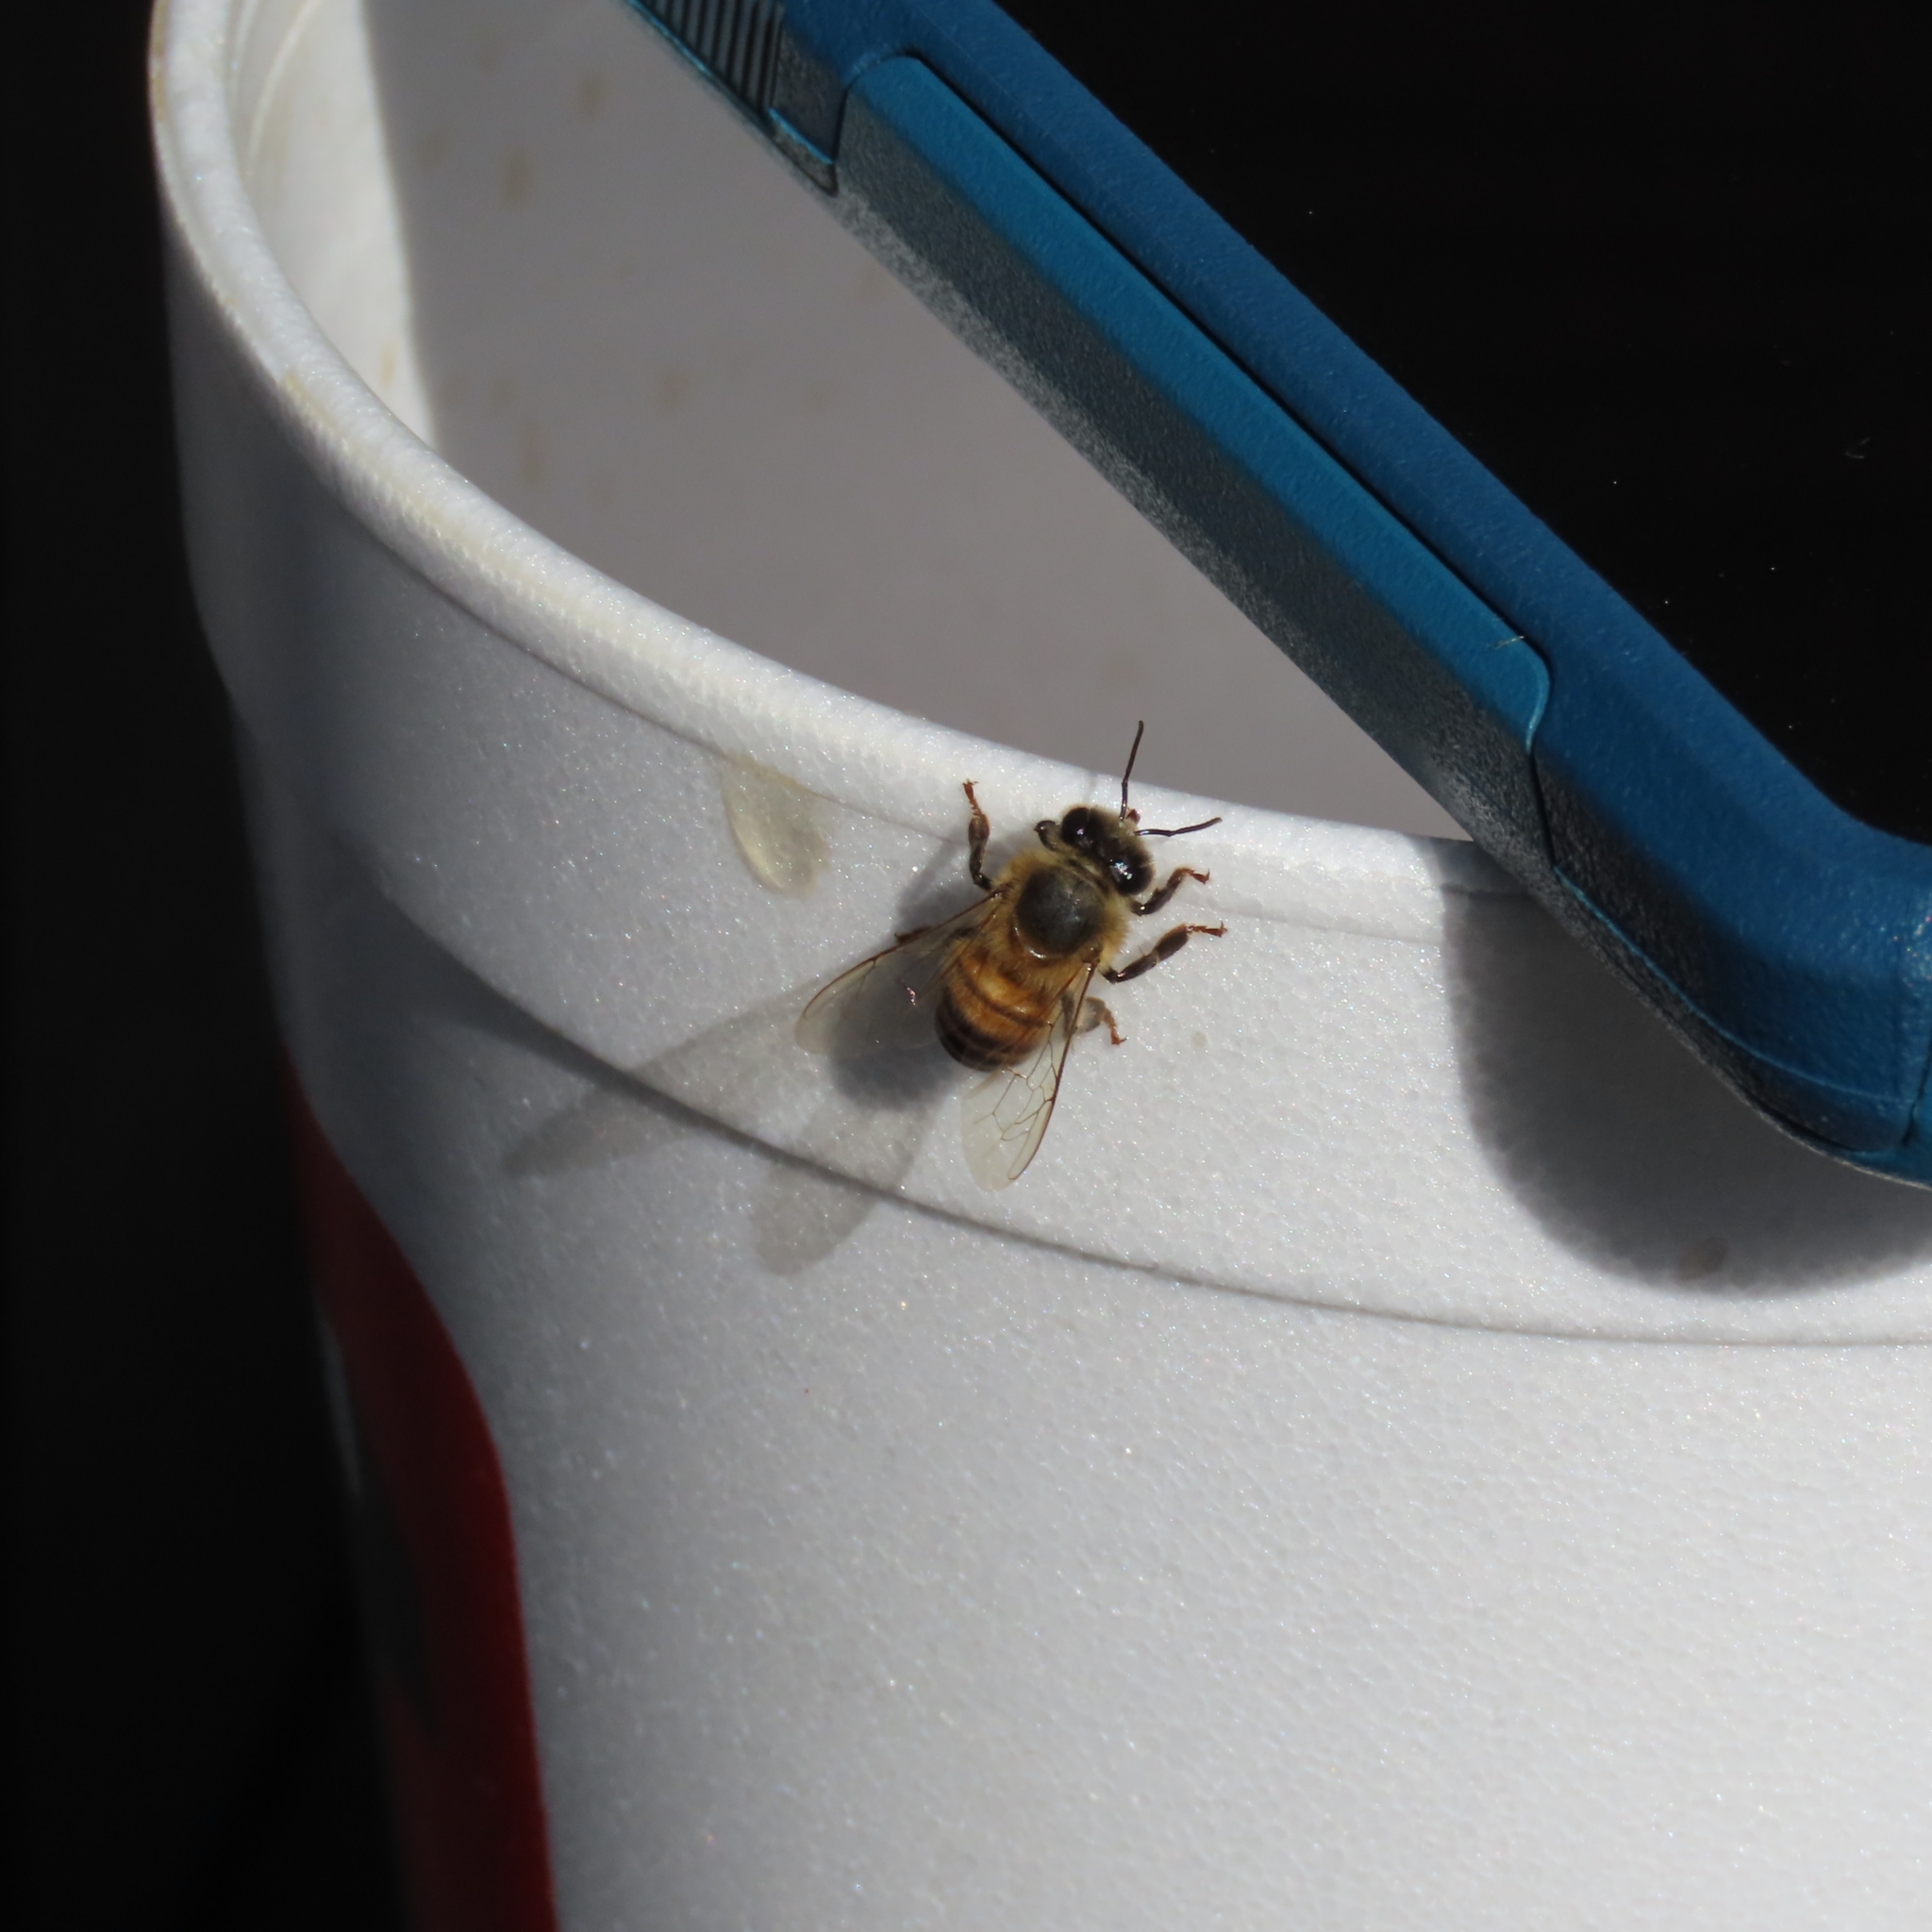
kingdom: Animalia
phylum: Arthropoda
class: Insecta
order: Hymenoptera
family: Apidae
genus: Apis
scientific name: Apis mellifera
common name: Honey bee
